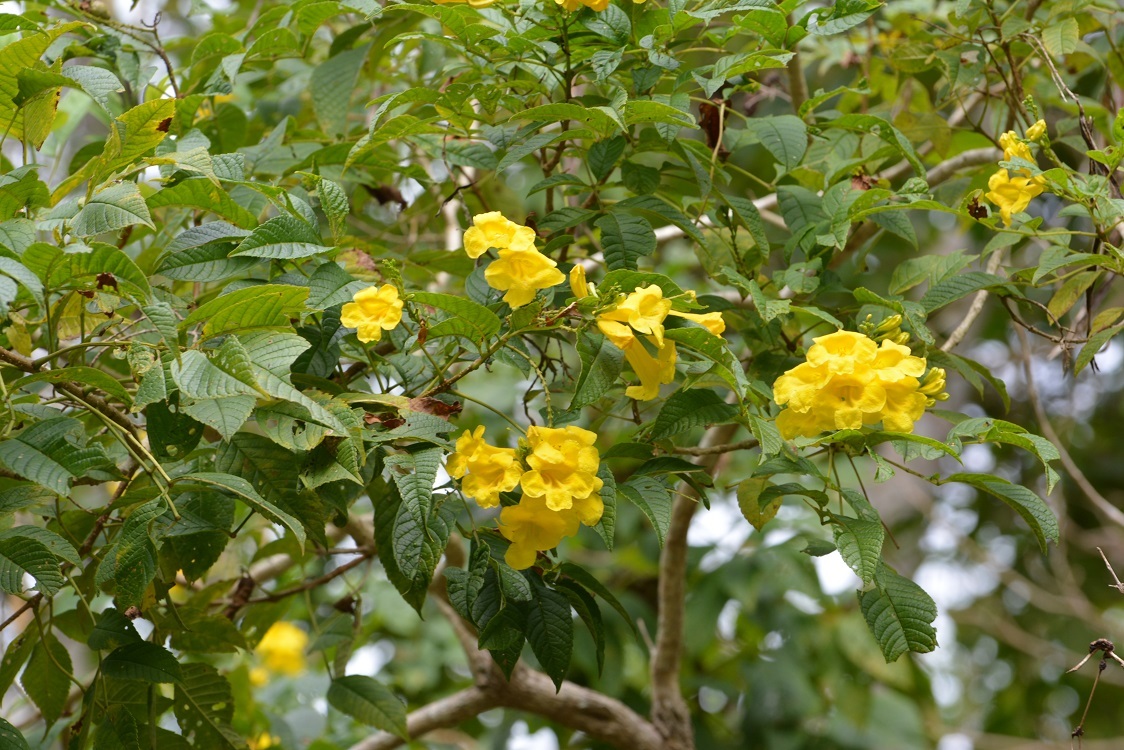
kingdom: Plantae
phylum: Tracheophyta
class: Magnoliopsida
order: Lamiales
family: Bignoniaceae
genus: Tecoma
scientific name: Tecoma stans
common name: Yellow trumpetbush
